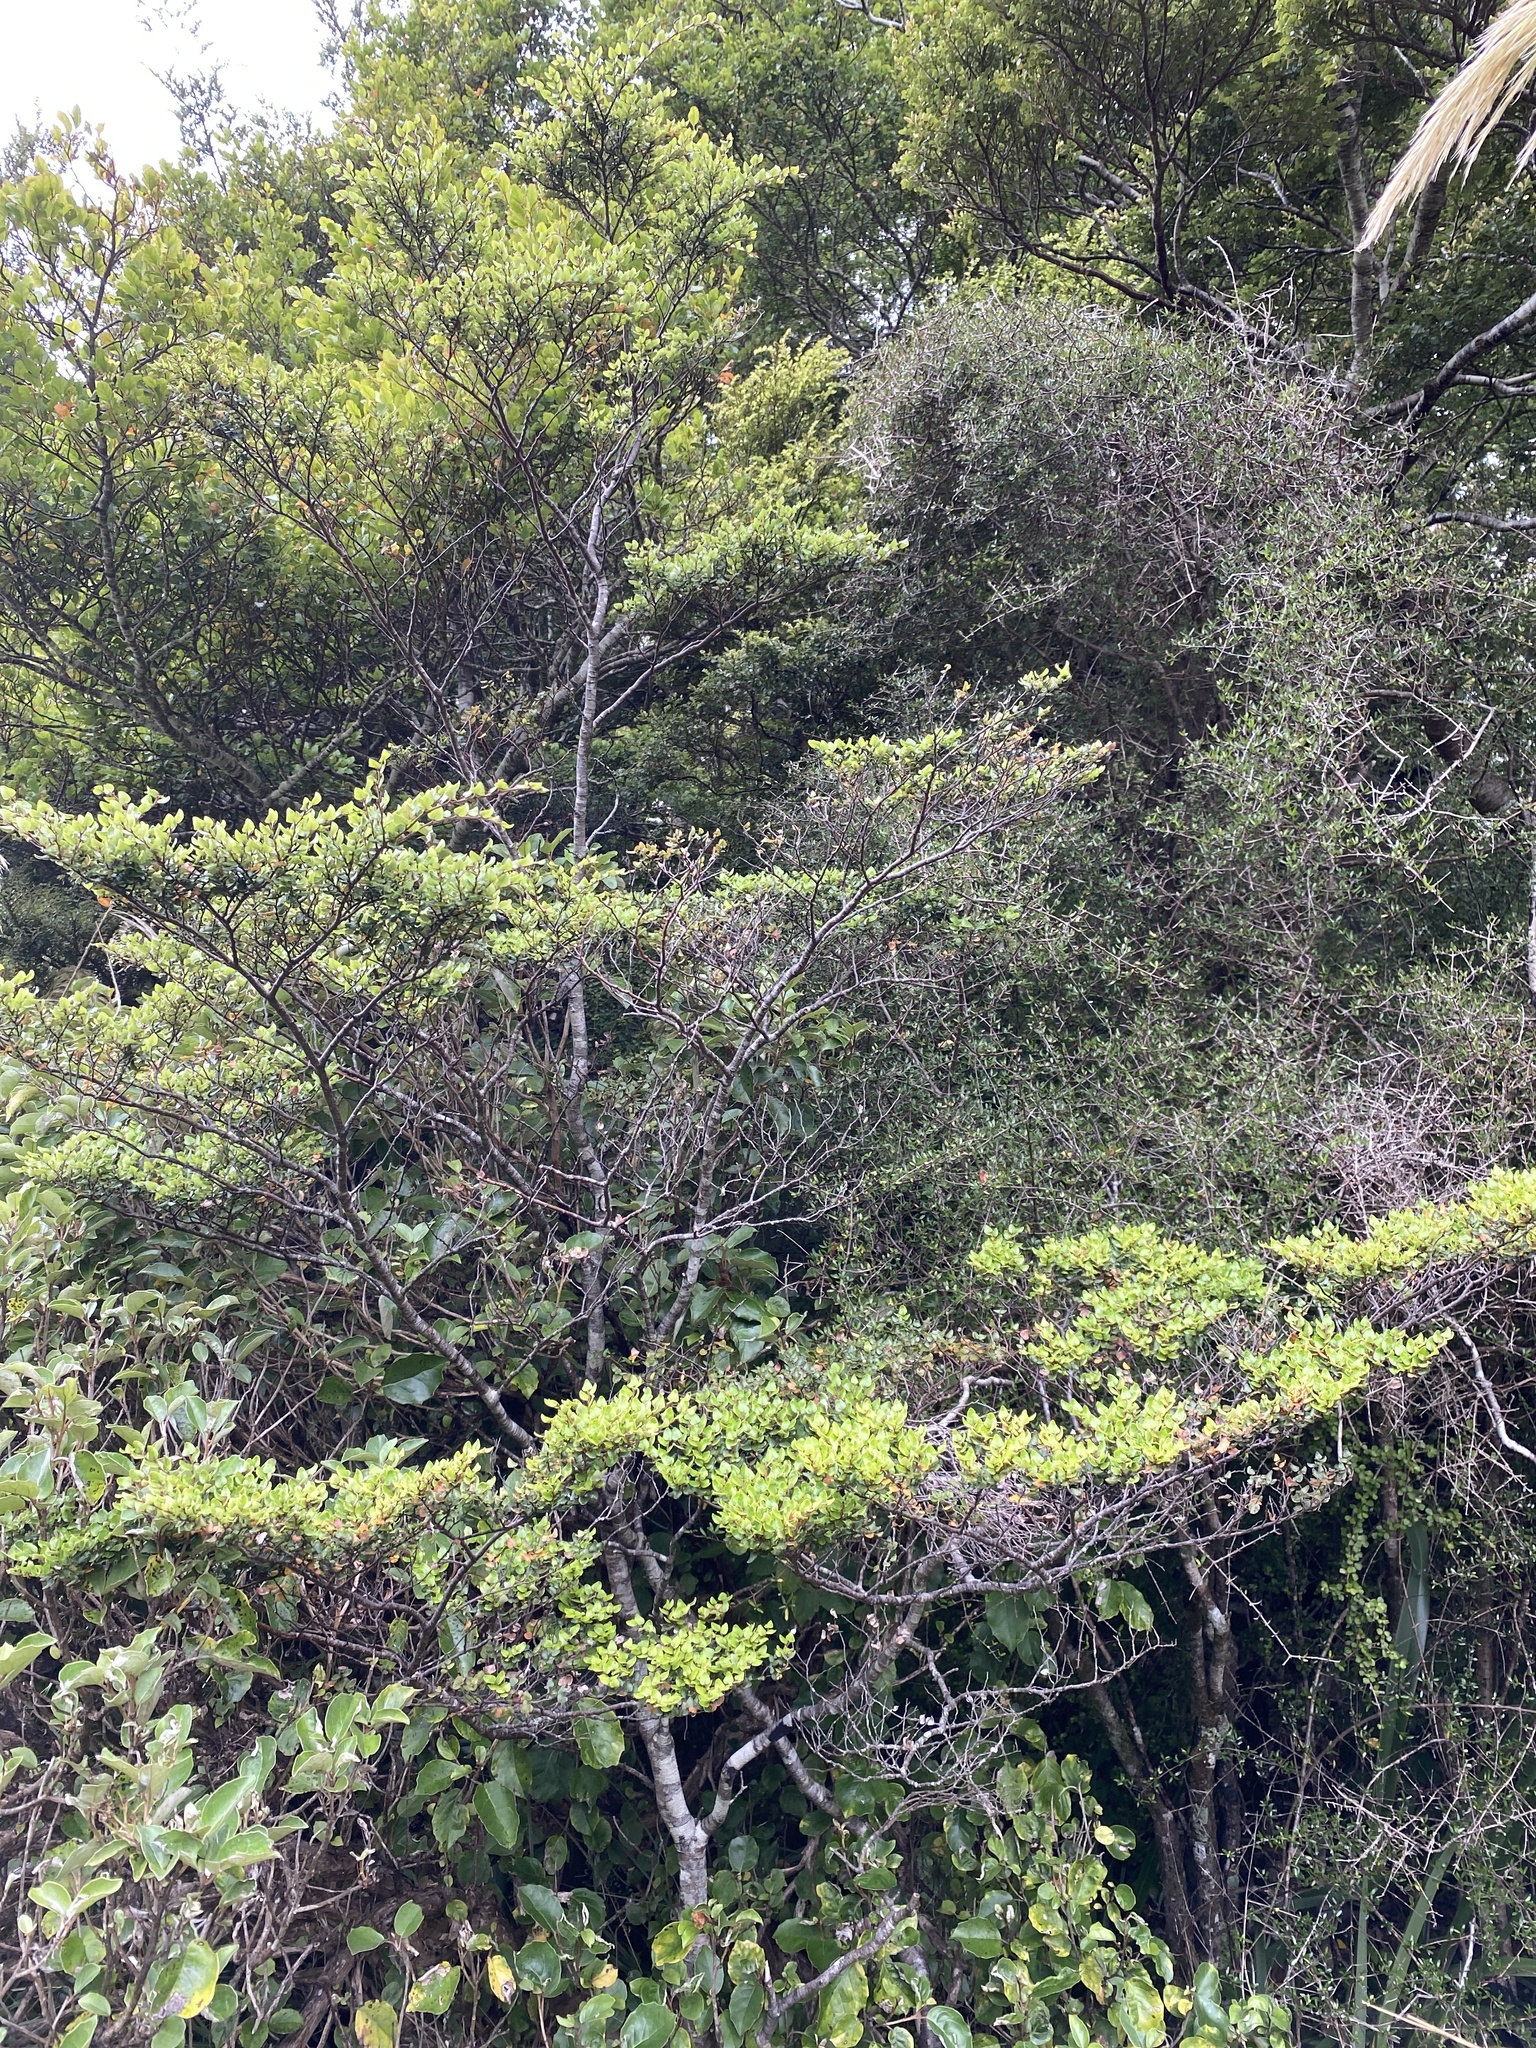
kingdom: Plantae
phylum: Tracheophyta
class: Magnoliopsida
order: Fagales
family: Nothofagaceae
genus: Nothofagus
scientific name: Nothofagus cliffortioides
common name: Mountain beech
